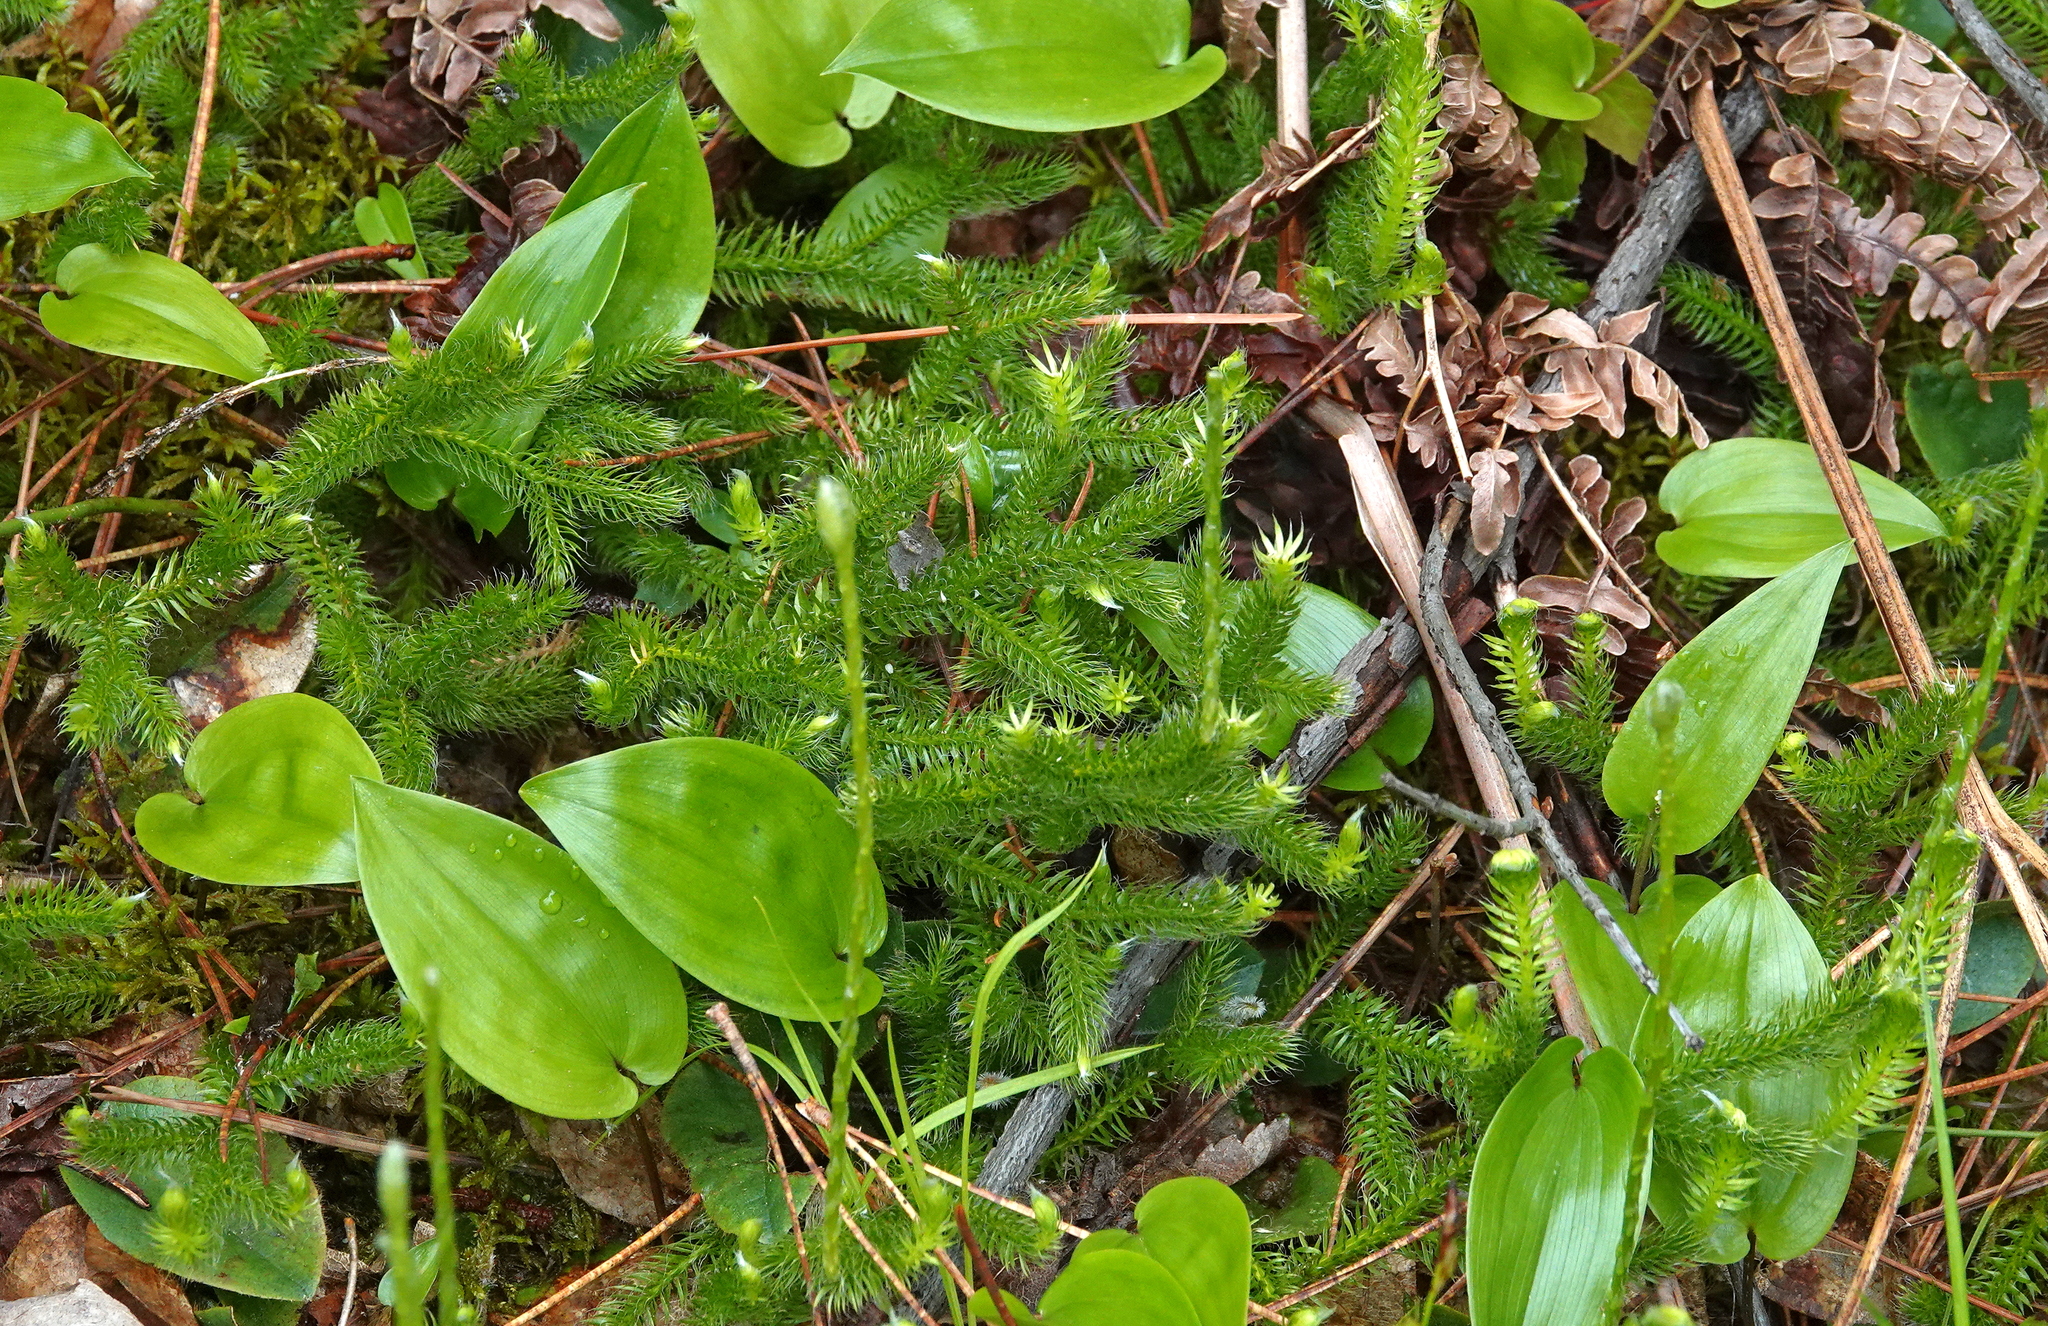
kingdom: Plantae
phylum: Tracheophyta
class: Lycopodiopsida
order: Lycopodiales
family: Lycopodiaceae
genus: Lycopodium
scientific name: Lycopodium clavatum
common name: Stag's-horn clubmoss
